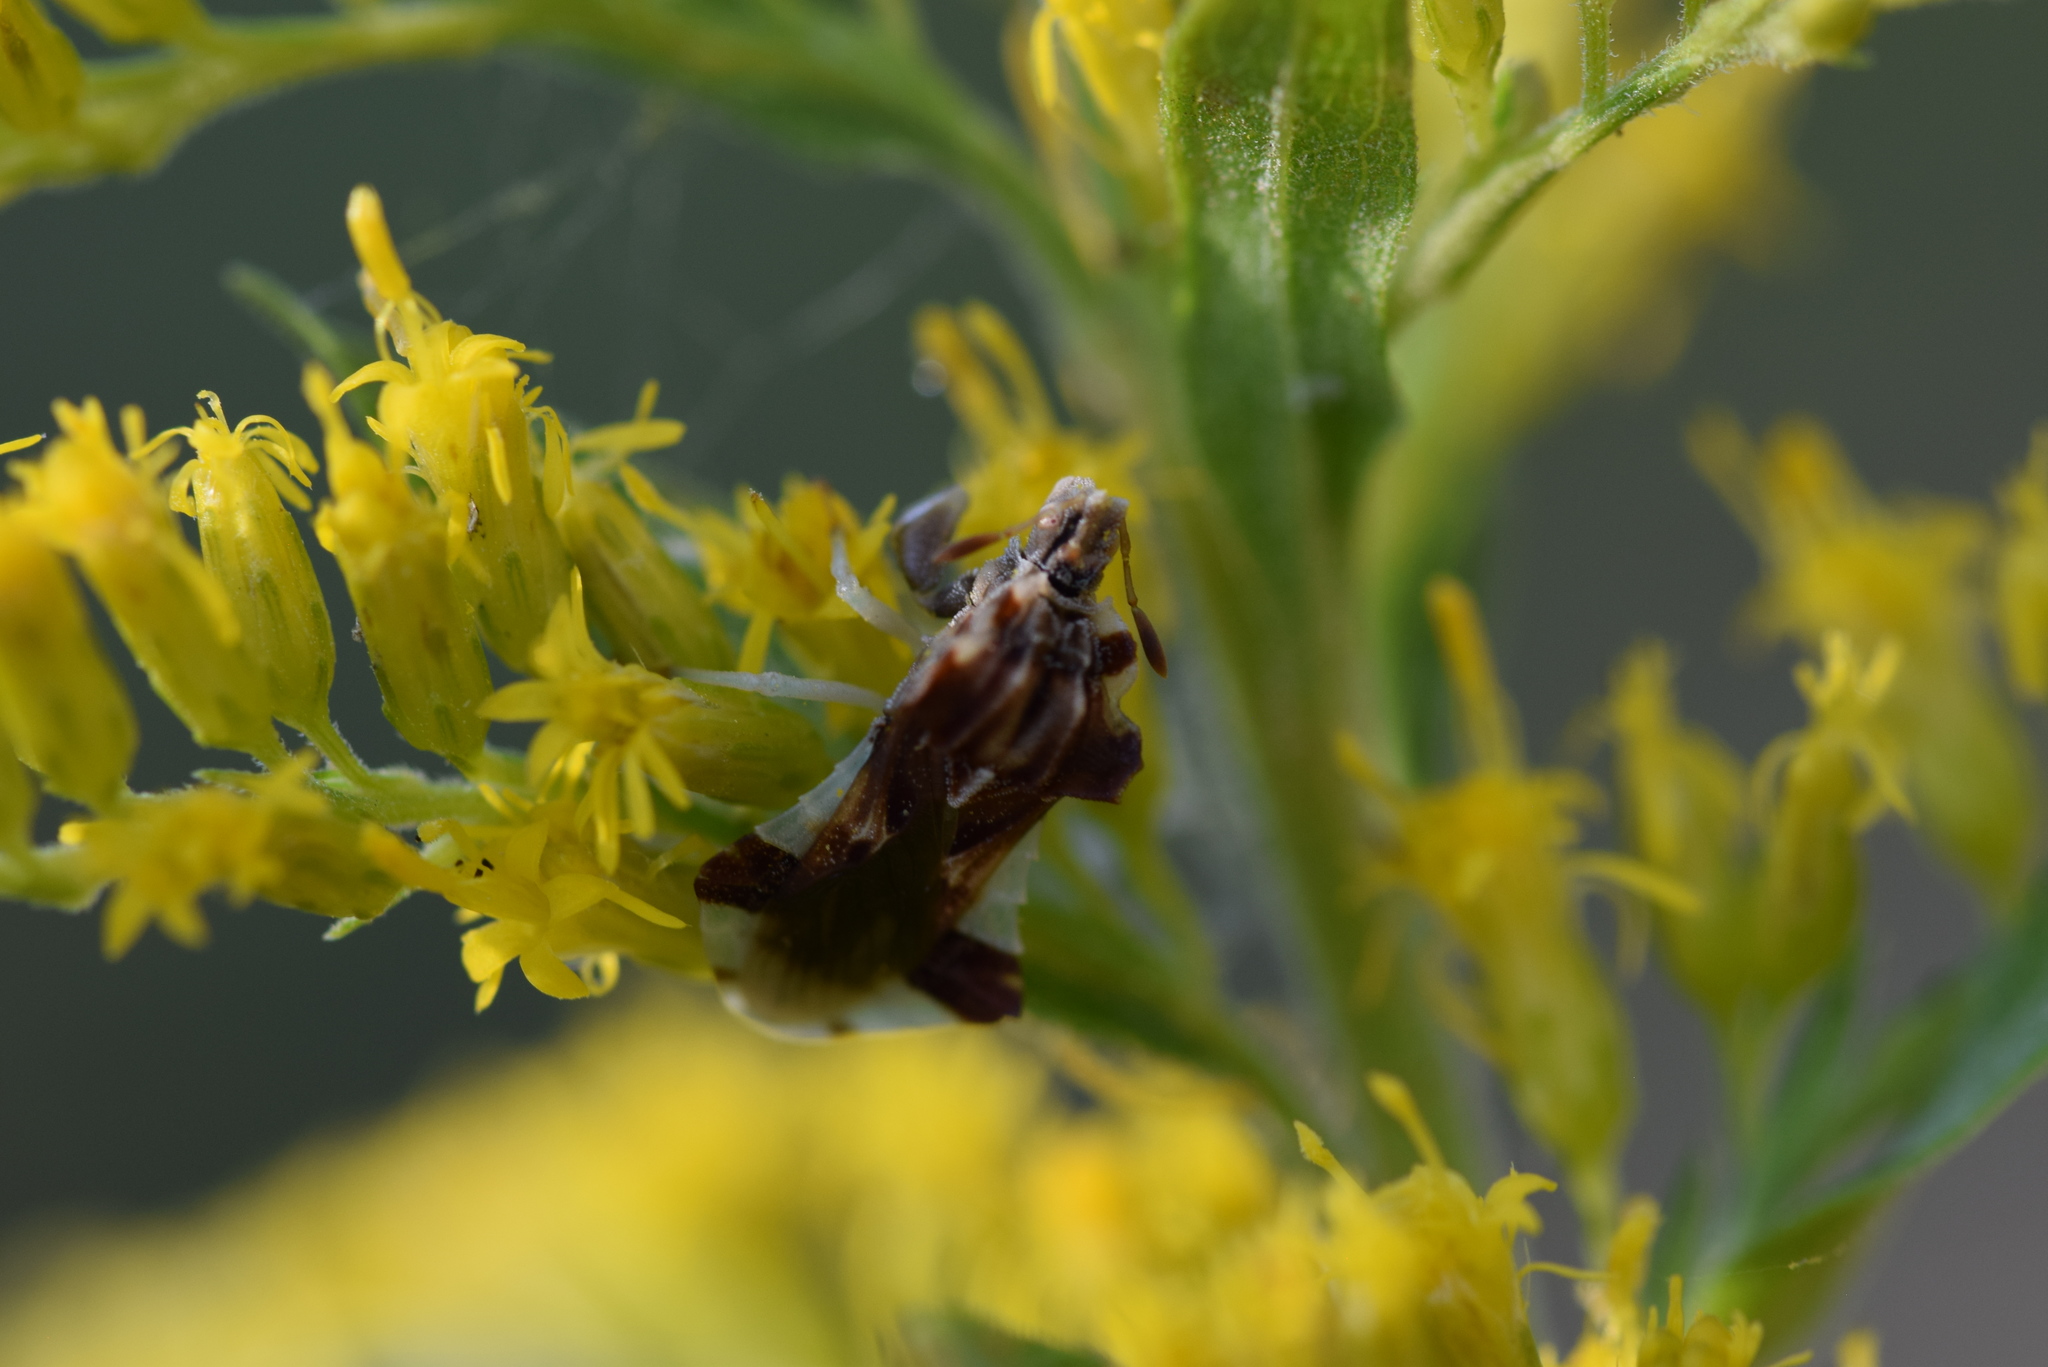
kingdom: Animalia
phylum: Arthropoda
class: Insecta
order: Hemiptera
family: Reduviidae
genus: Phymata
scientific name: Phymata fasciata
